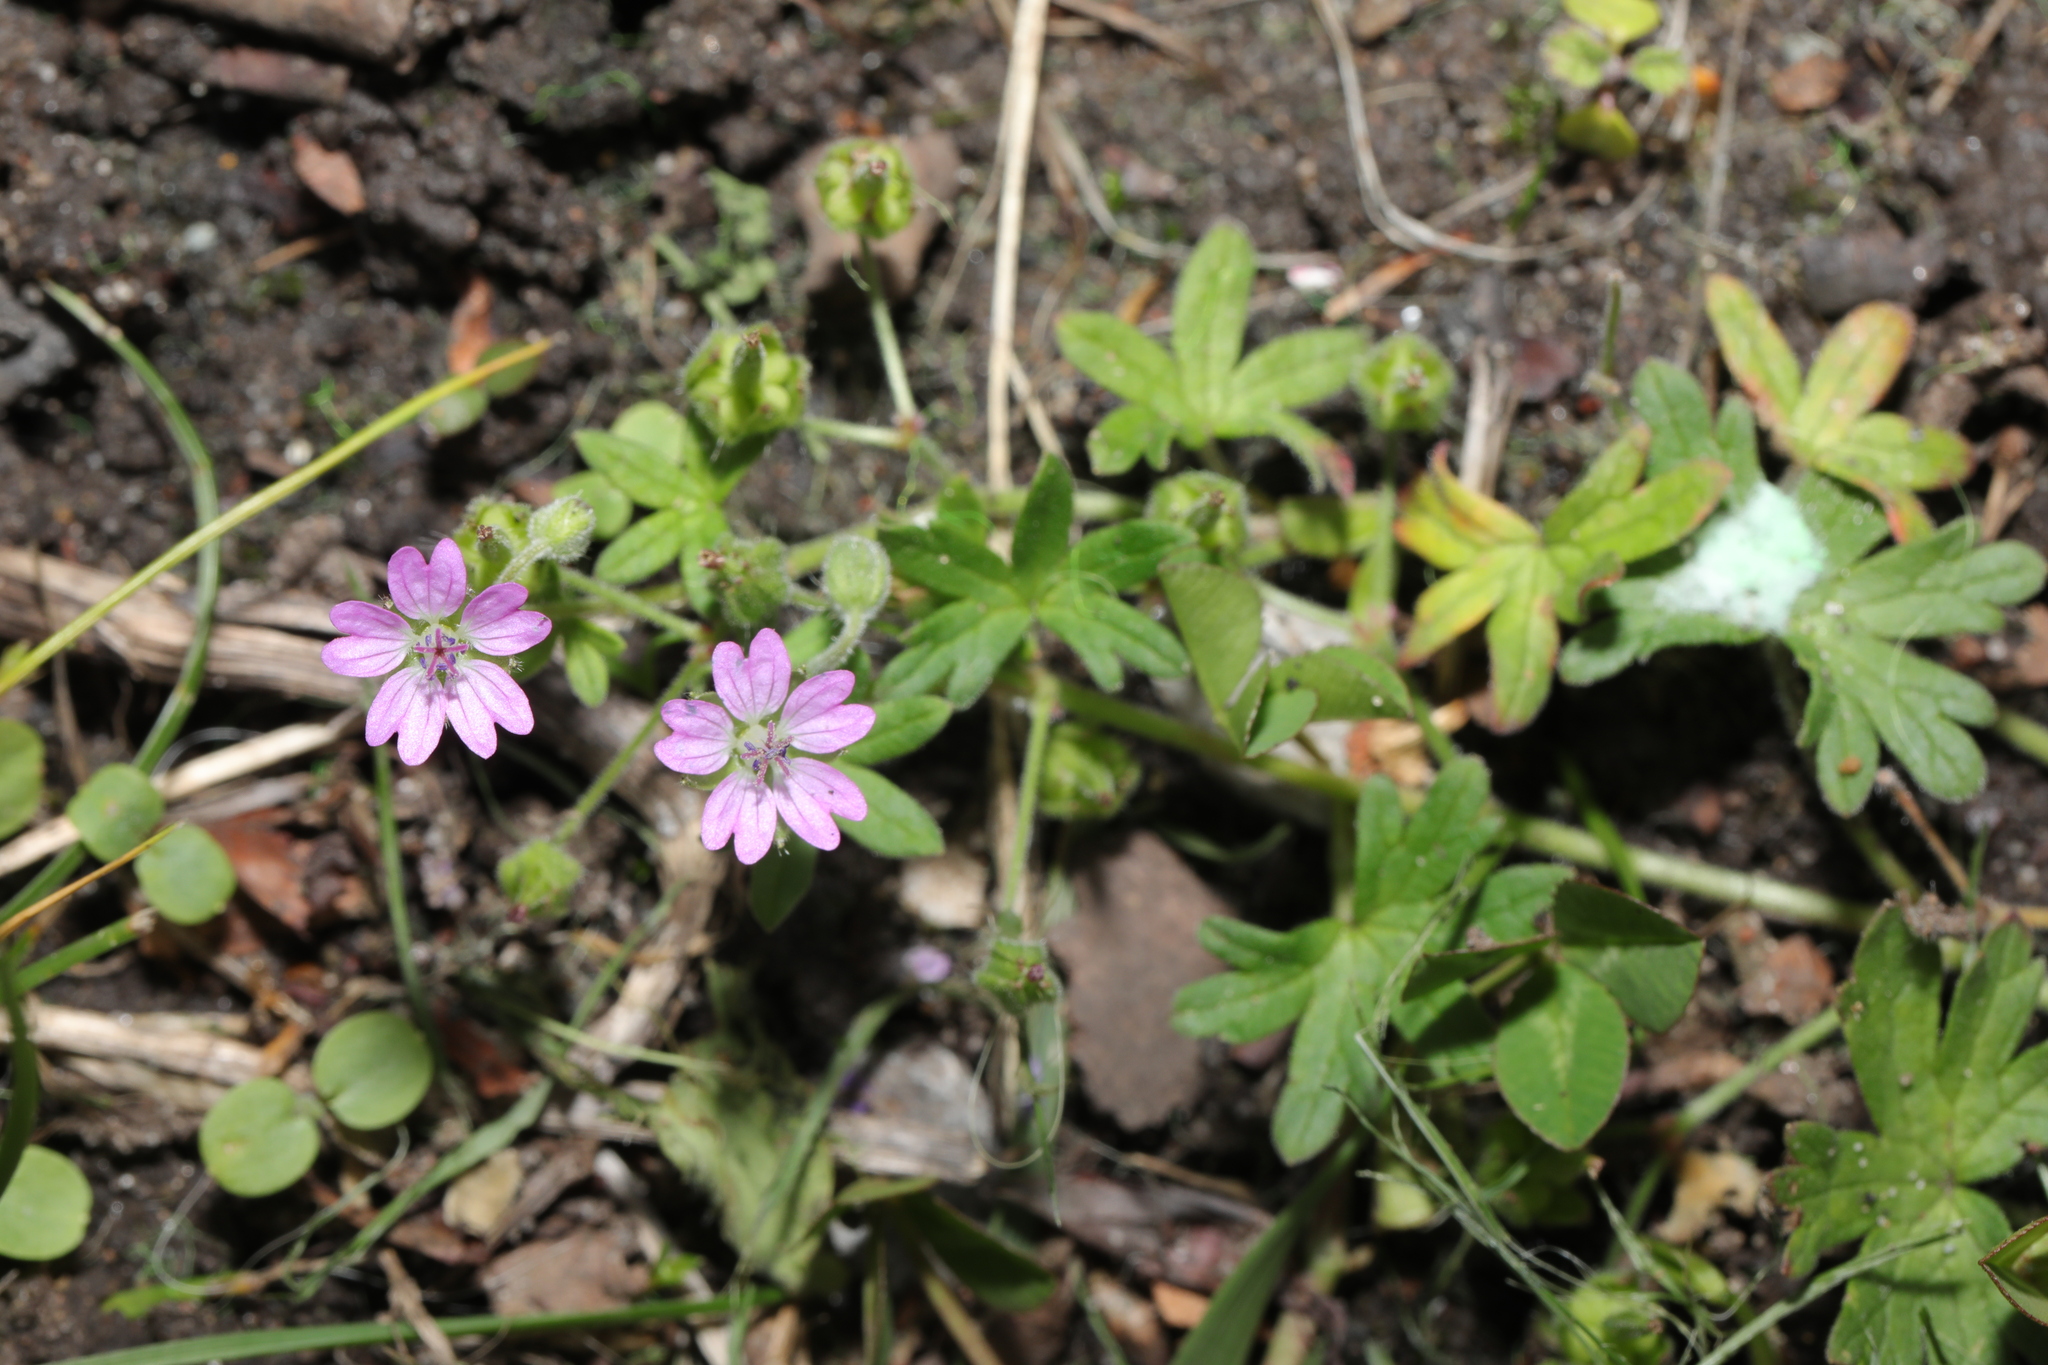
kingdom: Plantae
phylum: Tracheophyta
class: Magnoliopsida
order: Geraniales
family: Geraniaceae
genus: Geranium
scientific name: Geranium molle
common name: Dove's-foot crane's-bill
